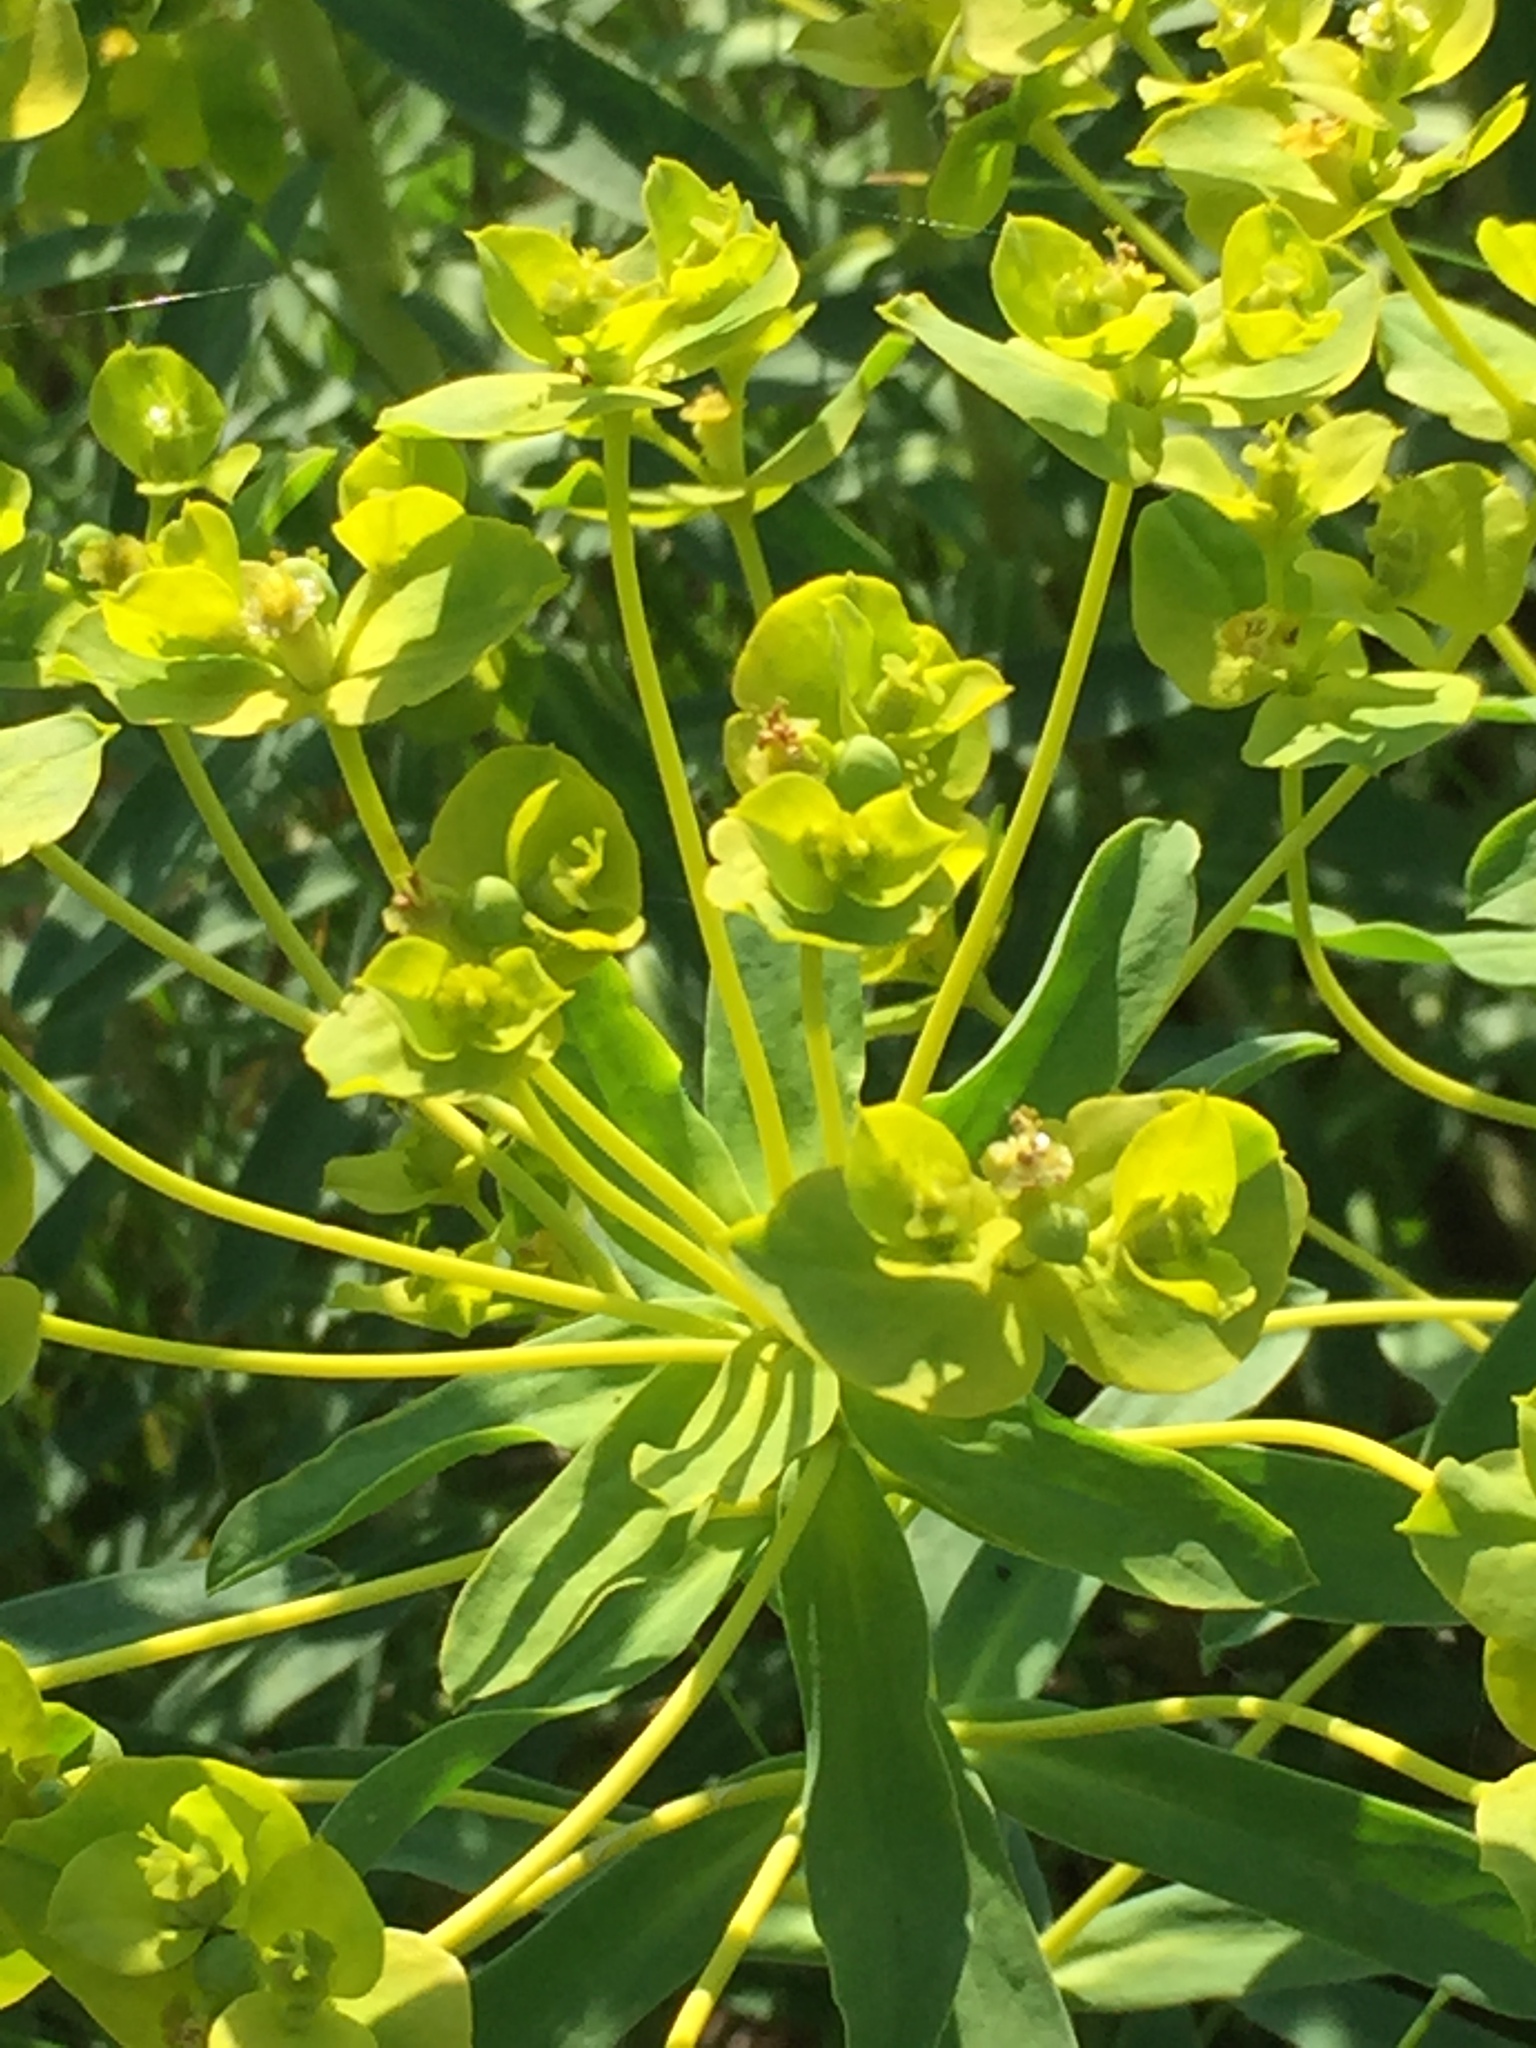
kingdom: Plantae
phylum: Tracheophyta
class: Magnoliopsida
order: Malpighiales
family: Euphorbiaceae
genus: Euphorbia
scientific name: Euphorbia stepposa
